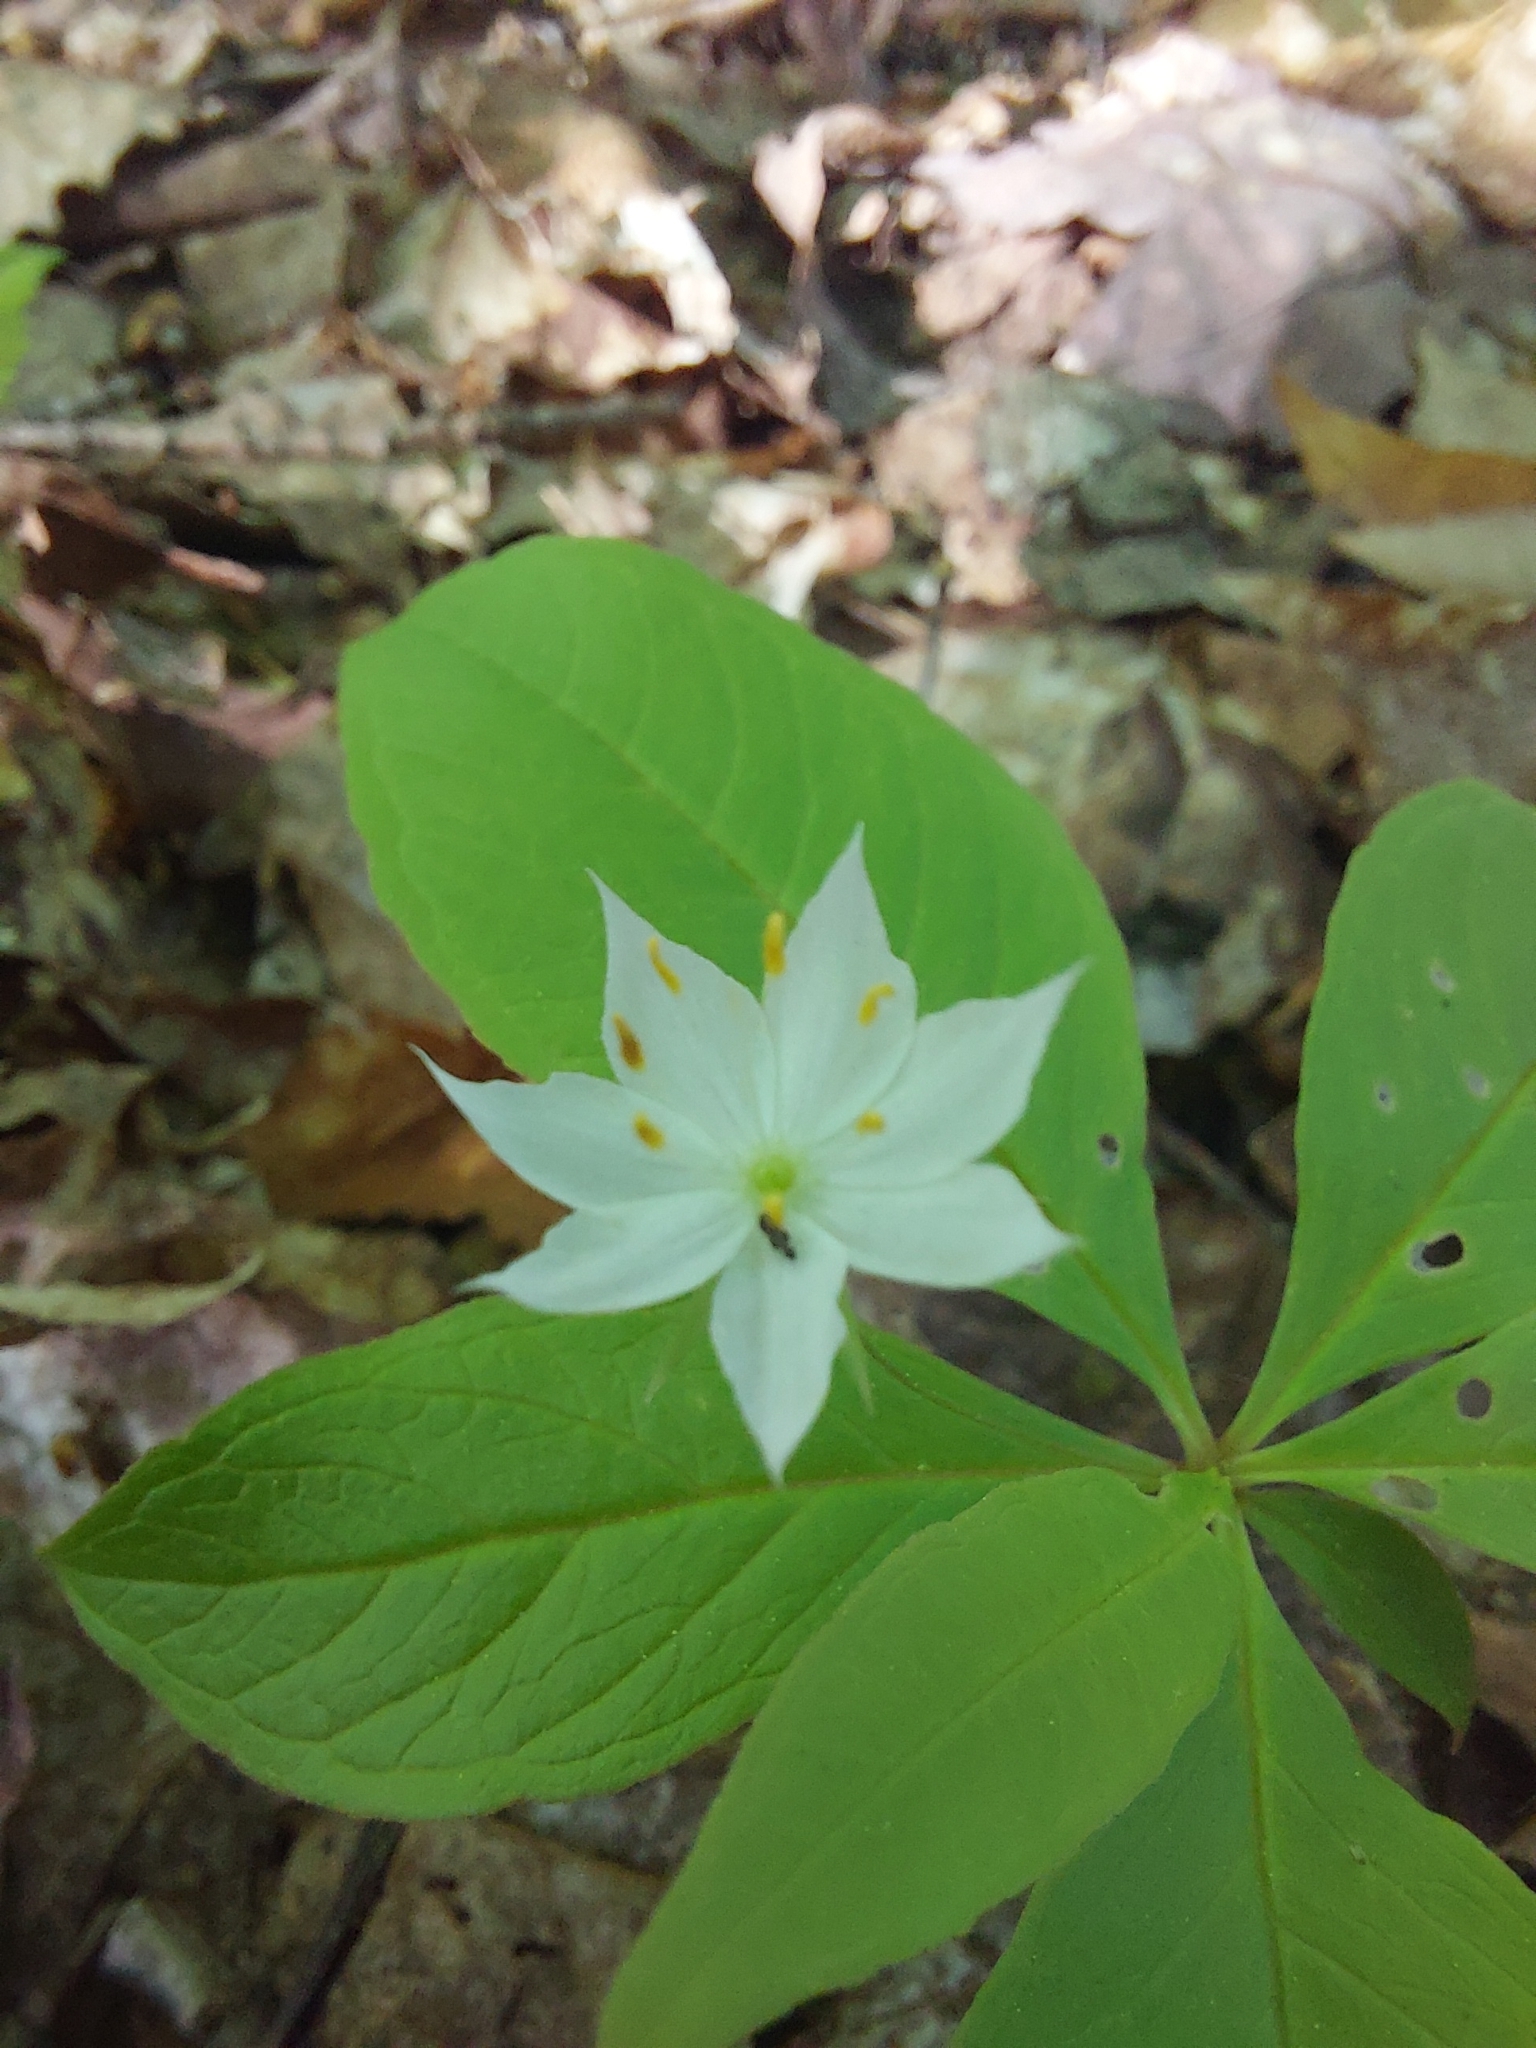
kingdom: Plantae
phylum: Tracheophyta
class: Magnoliopsida
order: Ericales
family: Primulaceae
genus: Lysimachia
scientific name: Lysimachia borealis
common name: American starflower
